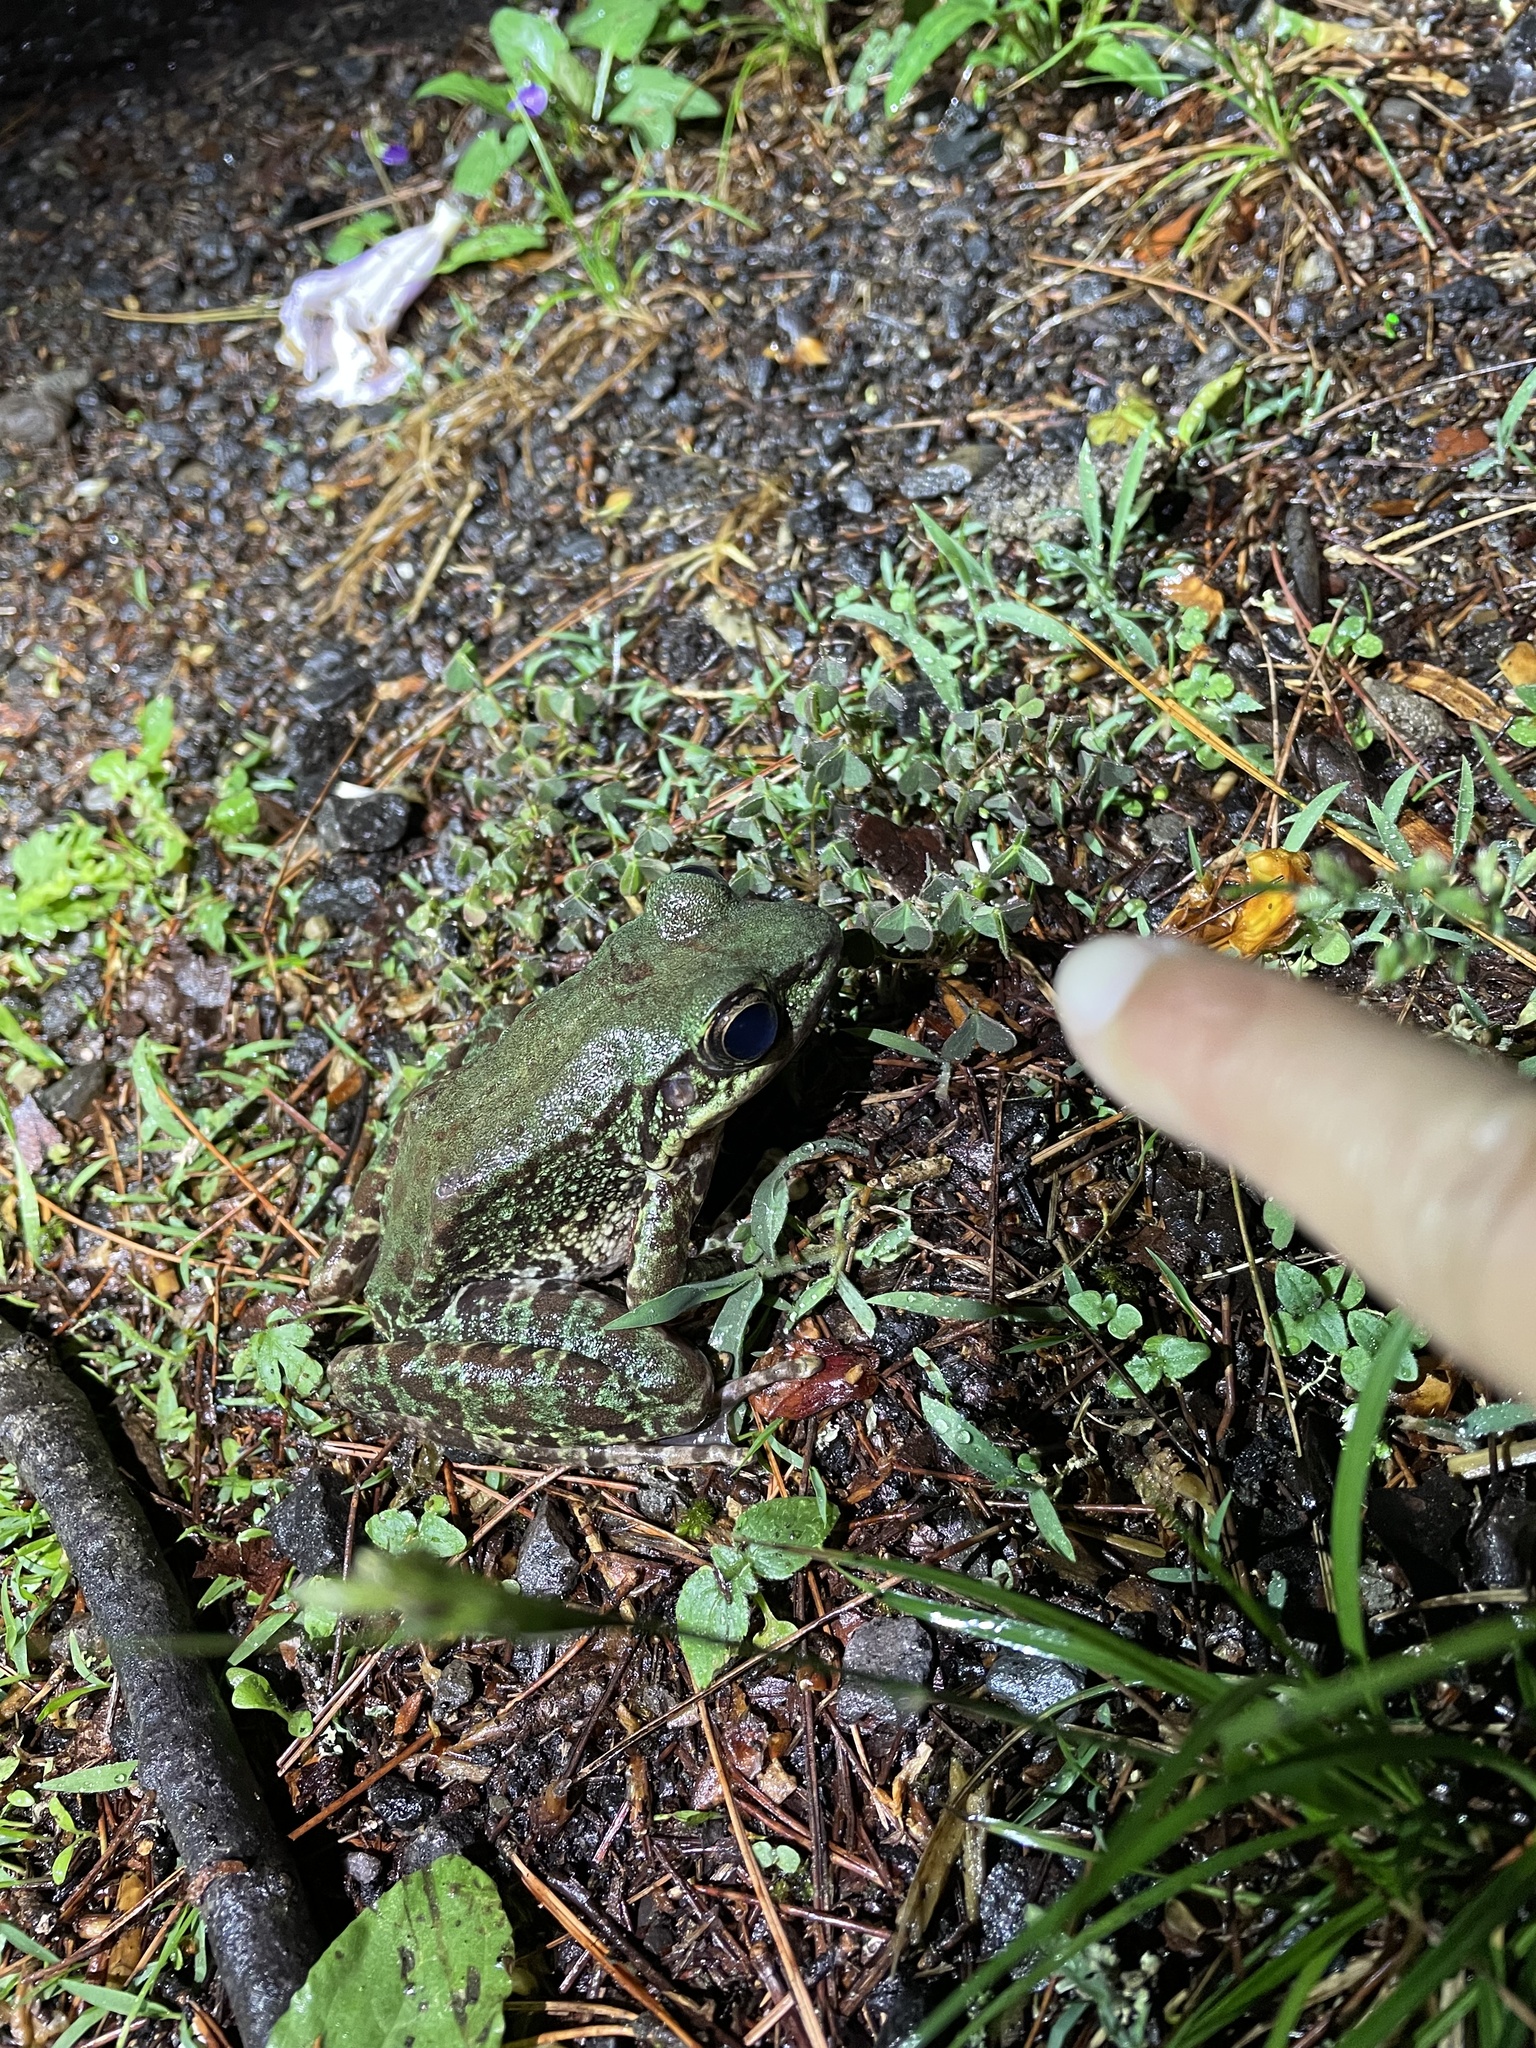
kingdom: Animalia
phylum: Chordata
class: Amphibia
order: Anura
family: Ranidae
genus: Odorrana
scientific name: Odorrana swinhoana
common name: Bangkimtsing frog
